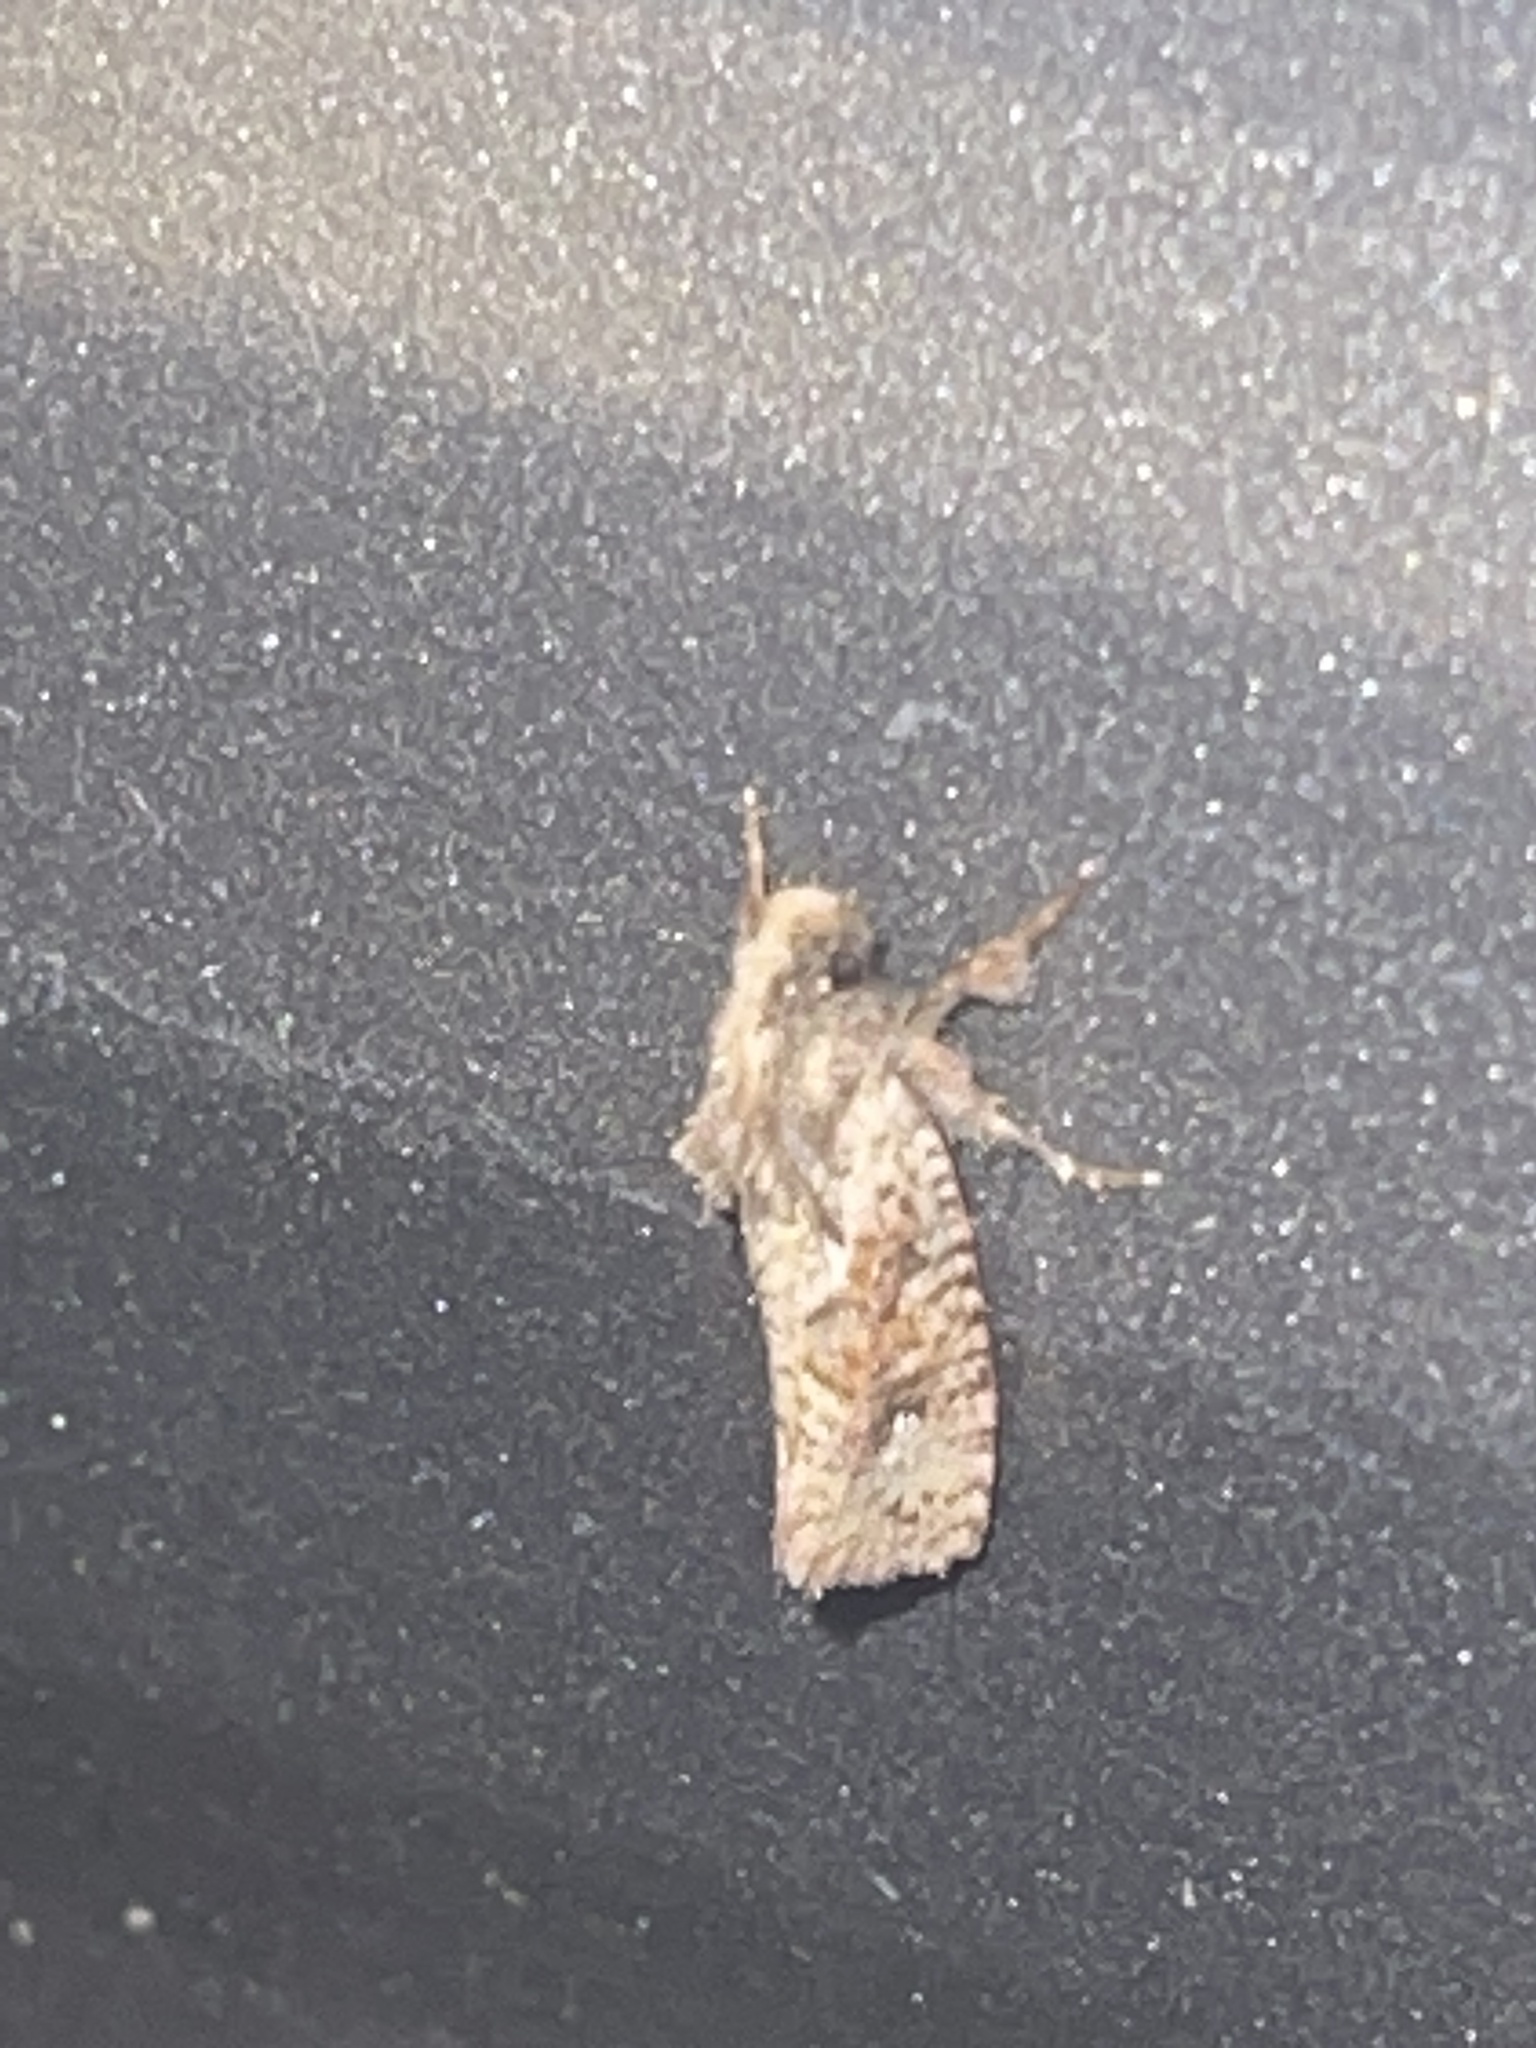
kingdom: Animalia
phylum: Arthropoda
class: Insecta
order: Lepidoptera
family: Tineidae
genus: Acrolophus
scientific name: Acrolophus walsinghami
